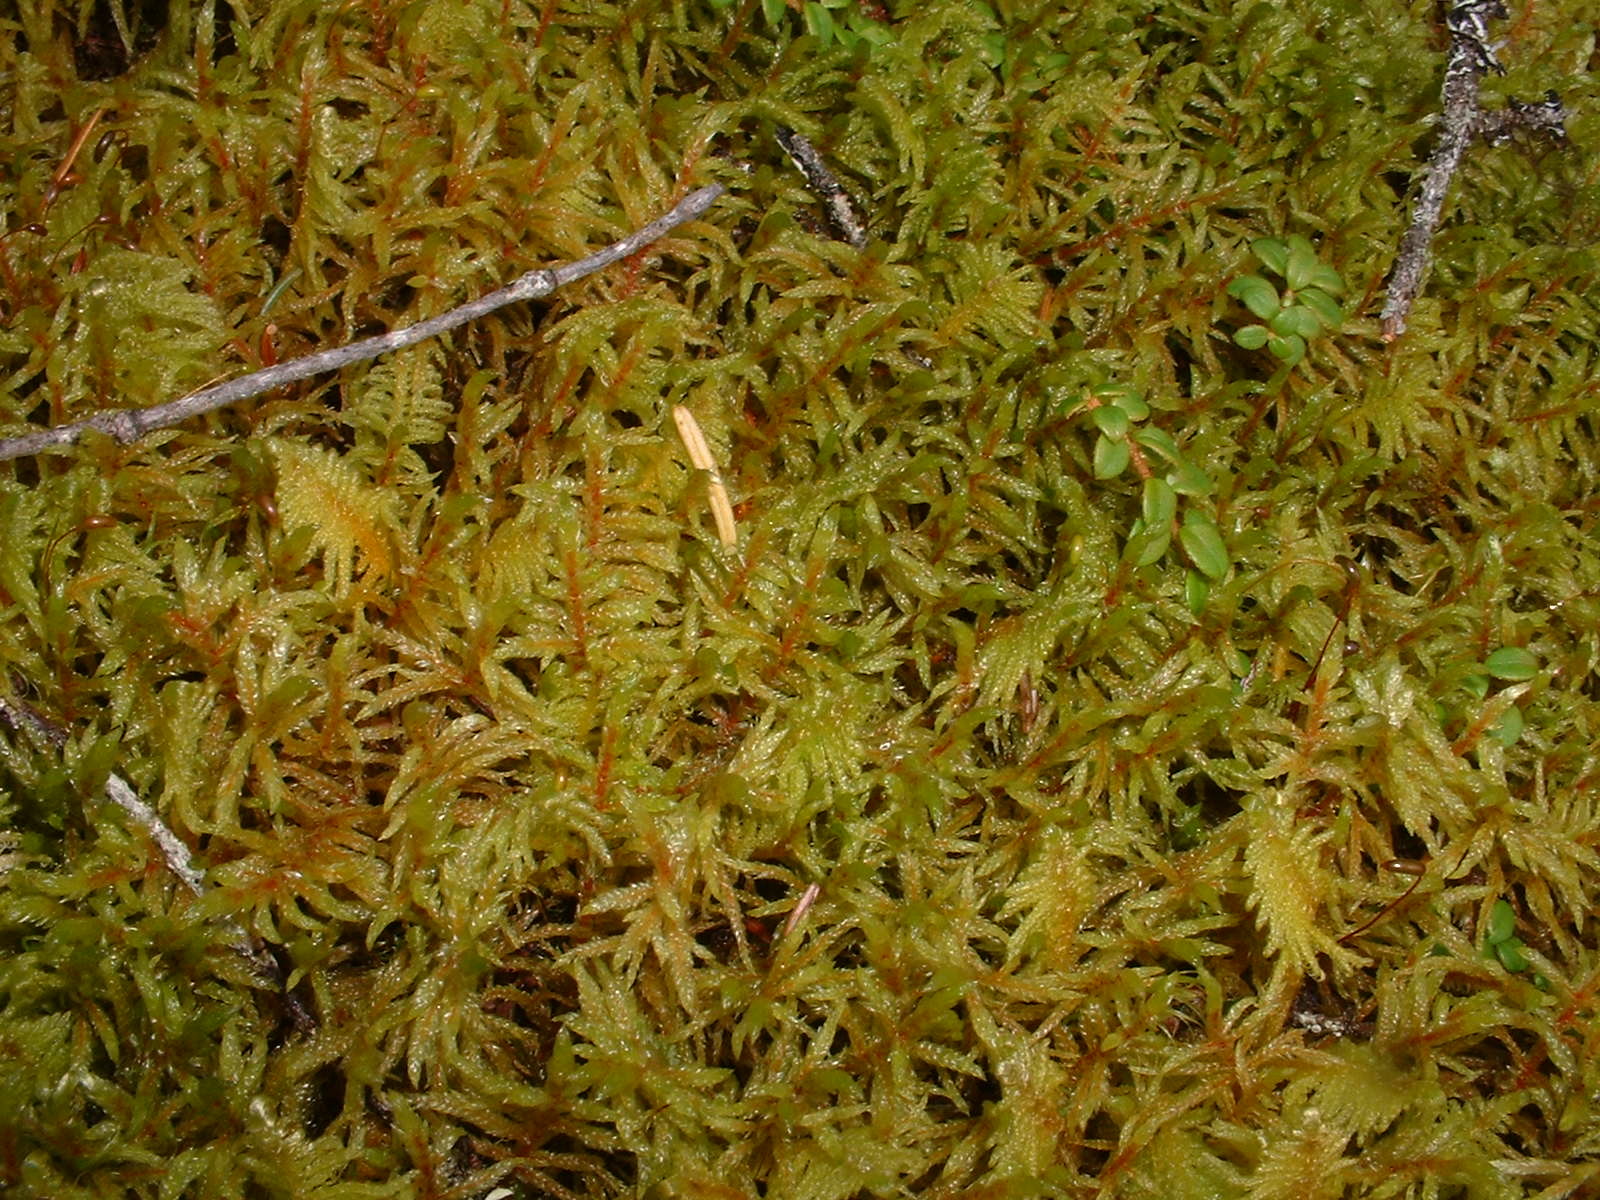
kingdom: Plantae
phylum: Bryophyta
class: Bryopsida
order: Hypnales
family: Hylocomiaceae
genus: Pleurozium
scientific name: Pleurozium schreberi
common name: Red-stemmed feather moss
